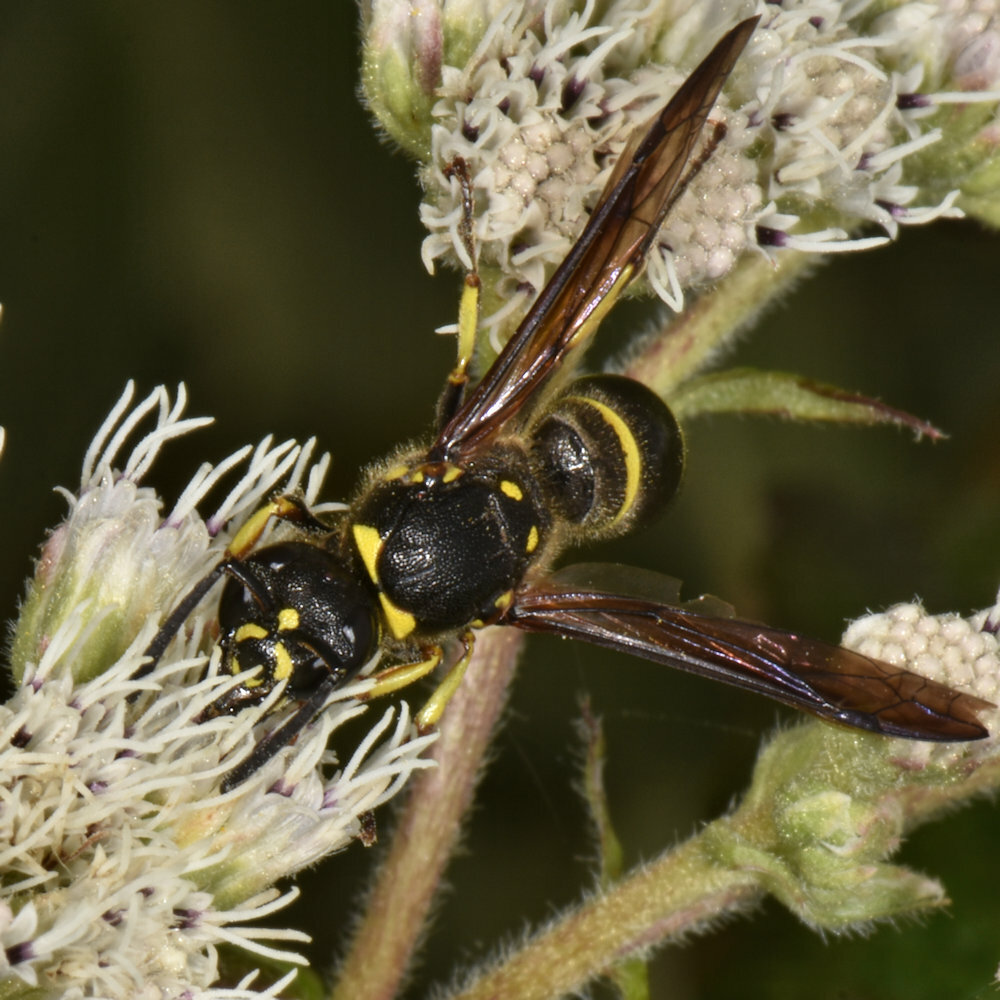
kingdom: Animalia
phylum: Arthropoda
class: Insecta
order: Hymenoptera
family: Vespidae
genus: Ancistrocerus
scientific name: Ancistrocerus
